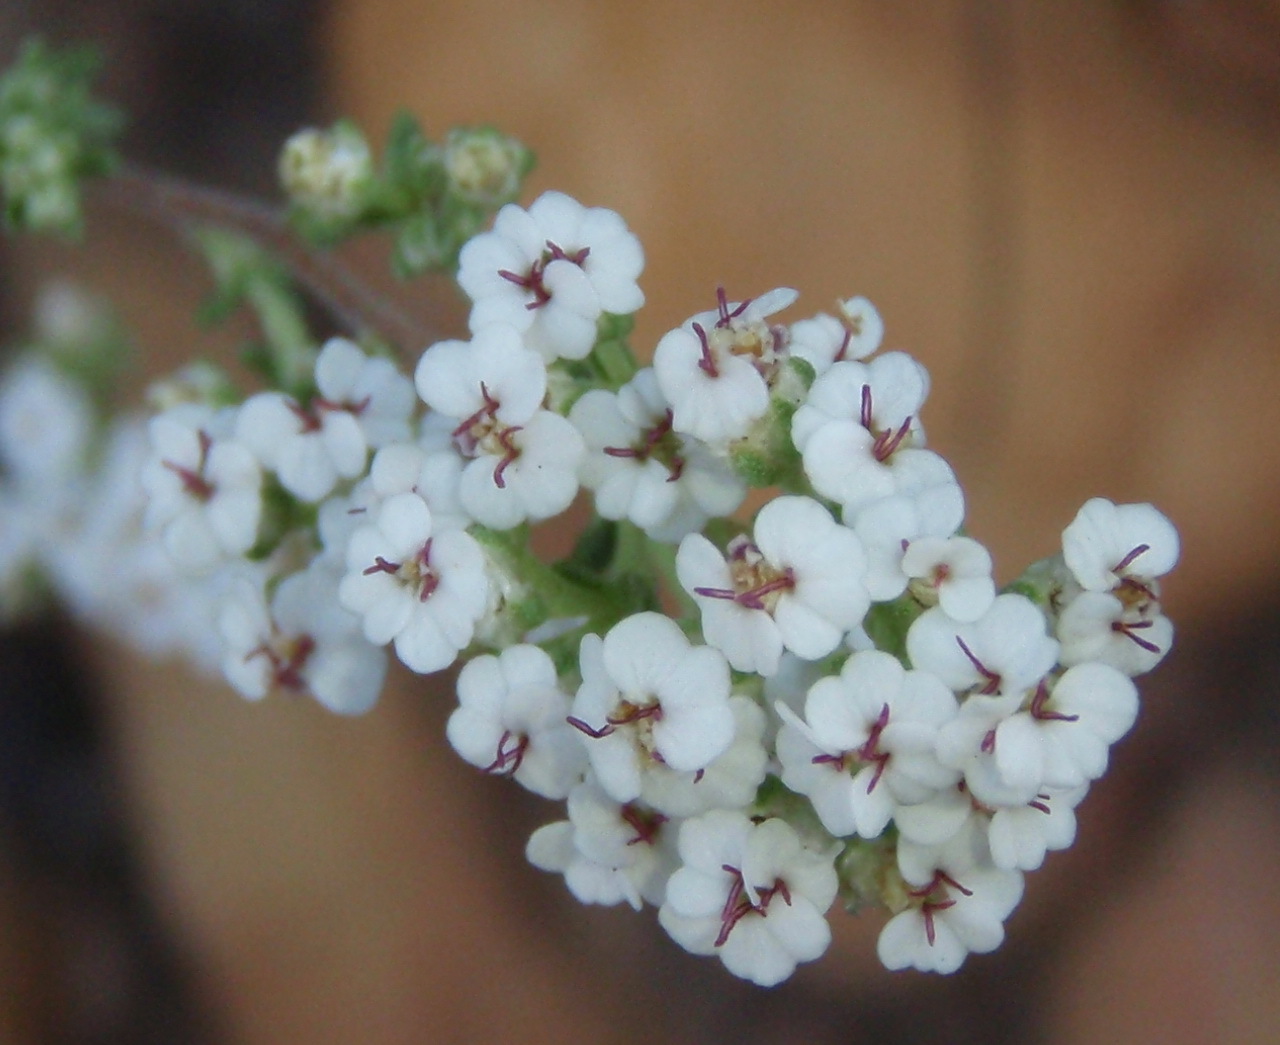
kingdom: Plantae
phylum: Tracheophyta
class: Magnoliopsida
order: Asterales
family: Asteraceae
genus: Eriocephalus
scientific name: Eriocephalus tenuipes
